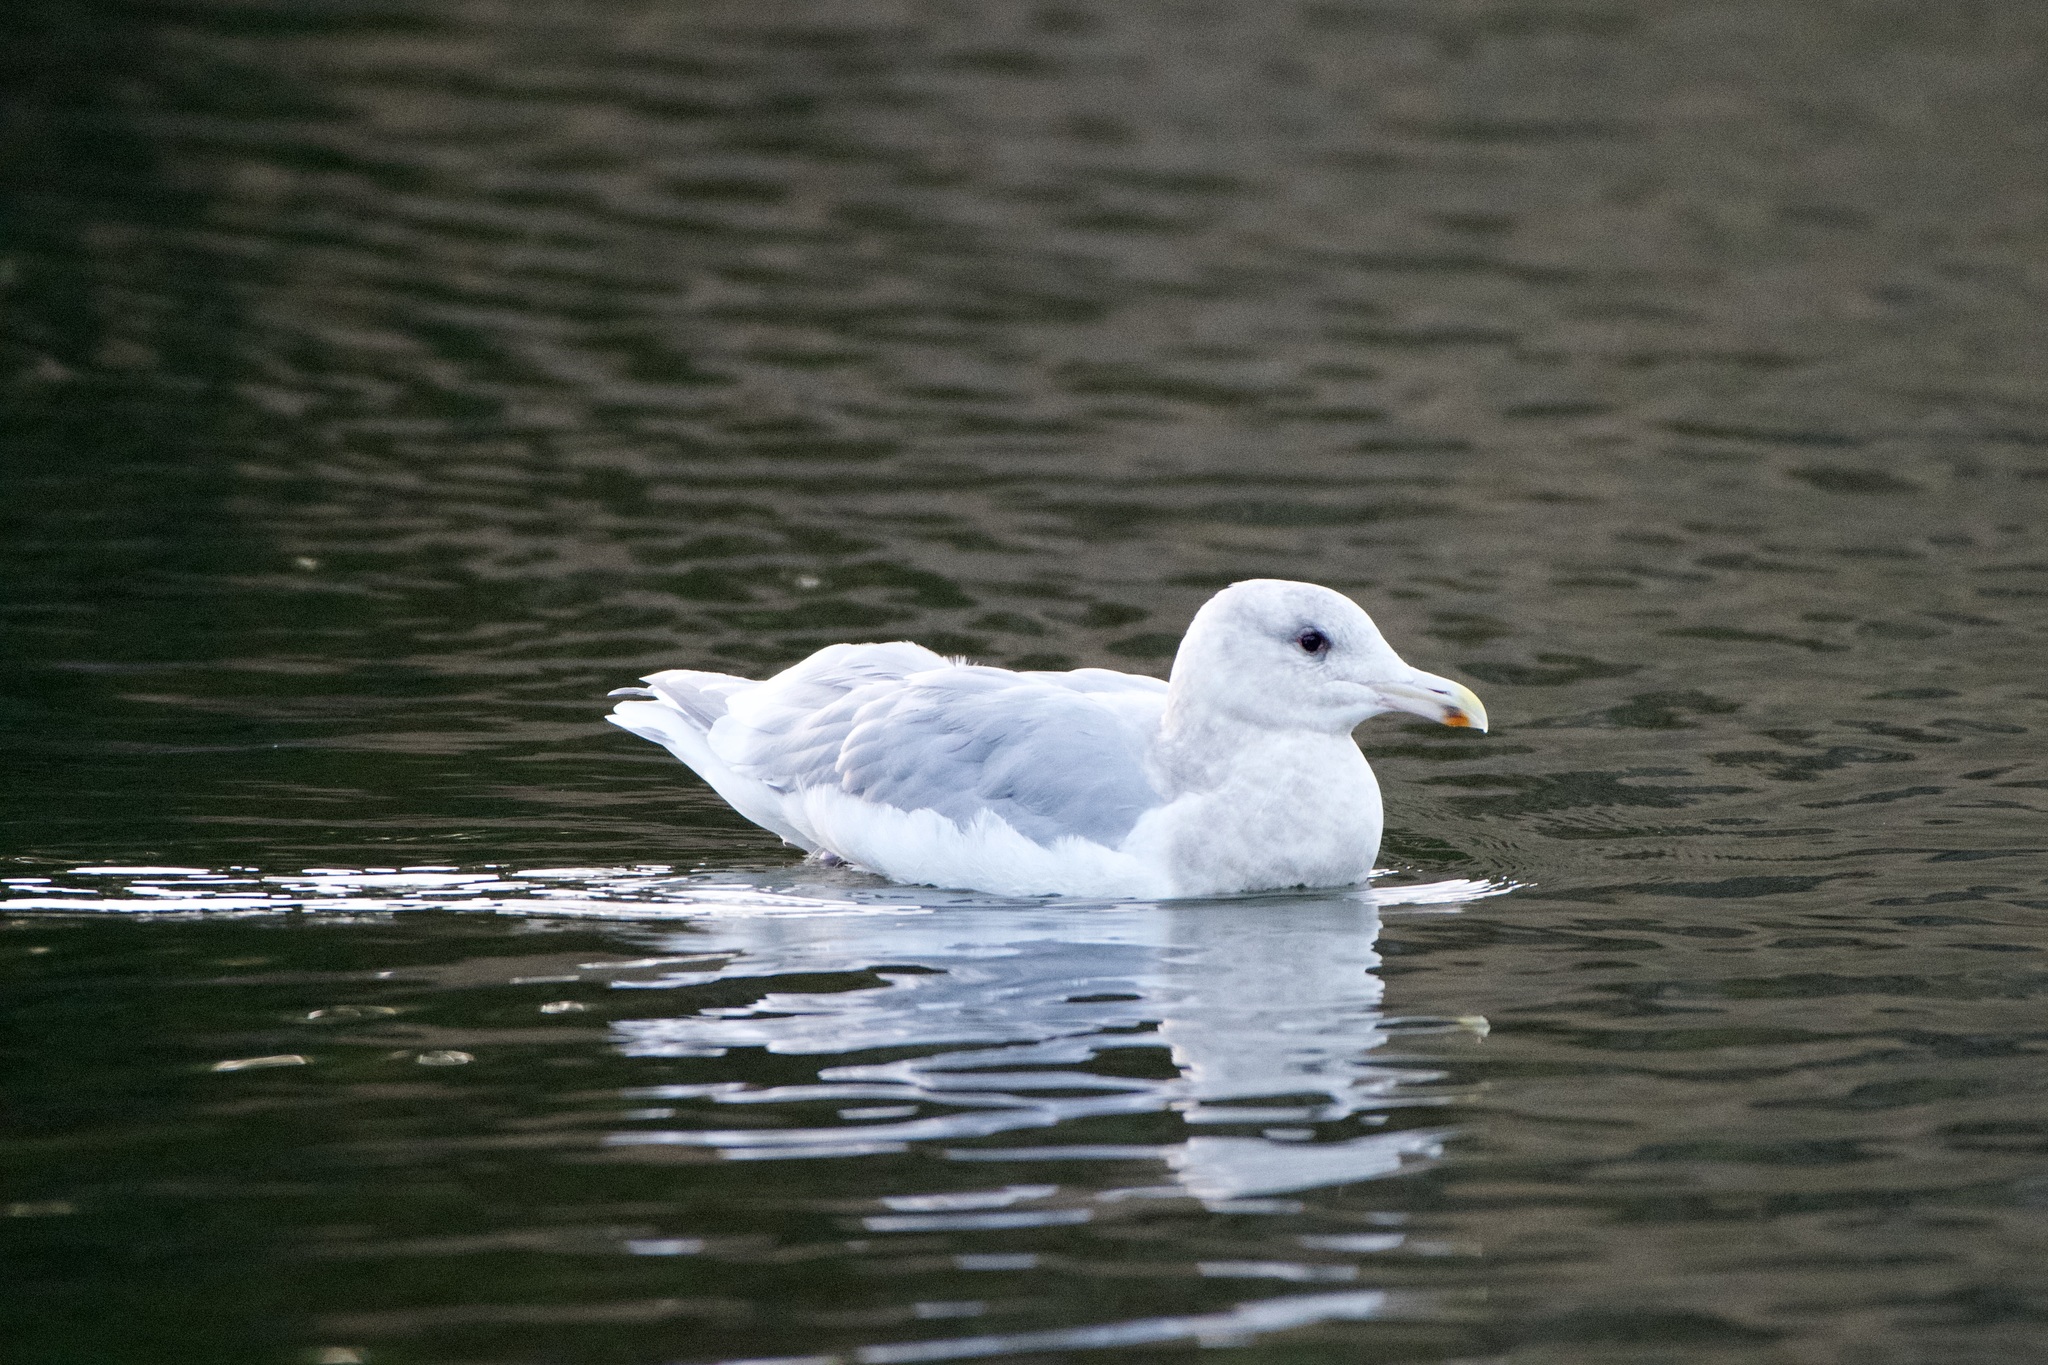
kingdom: Animalia
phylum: Chordata
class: Aves
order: Charadriiformes
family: Laridae
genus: Larus
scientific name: Larus
